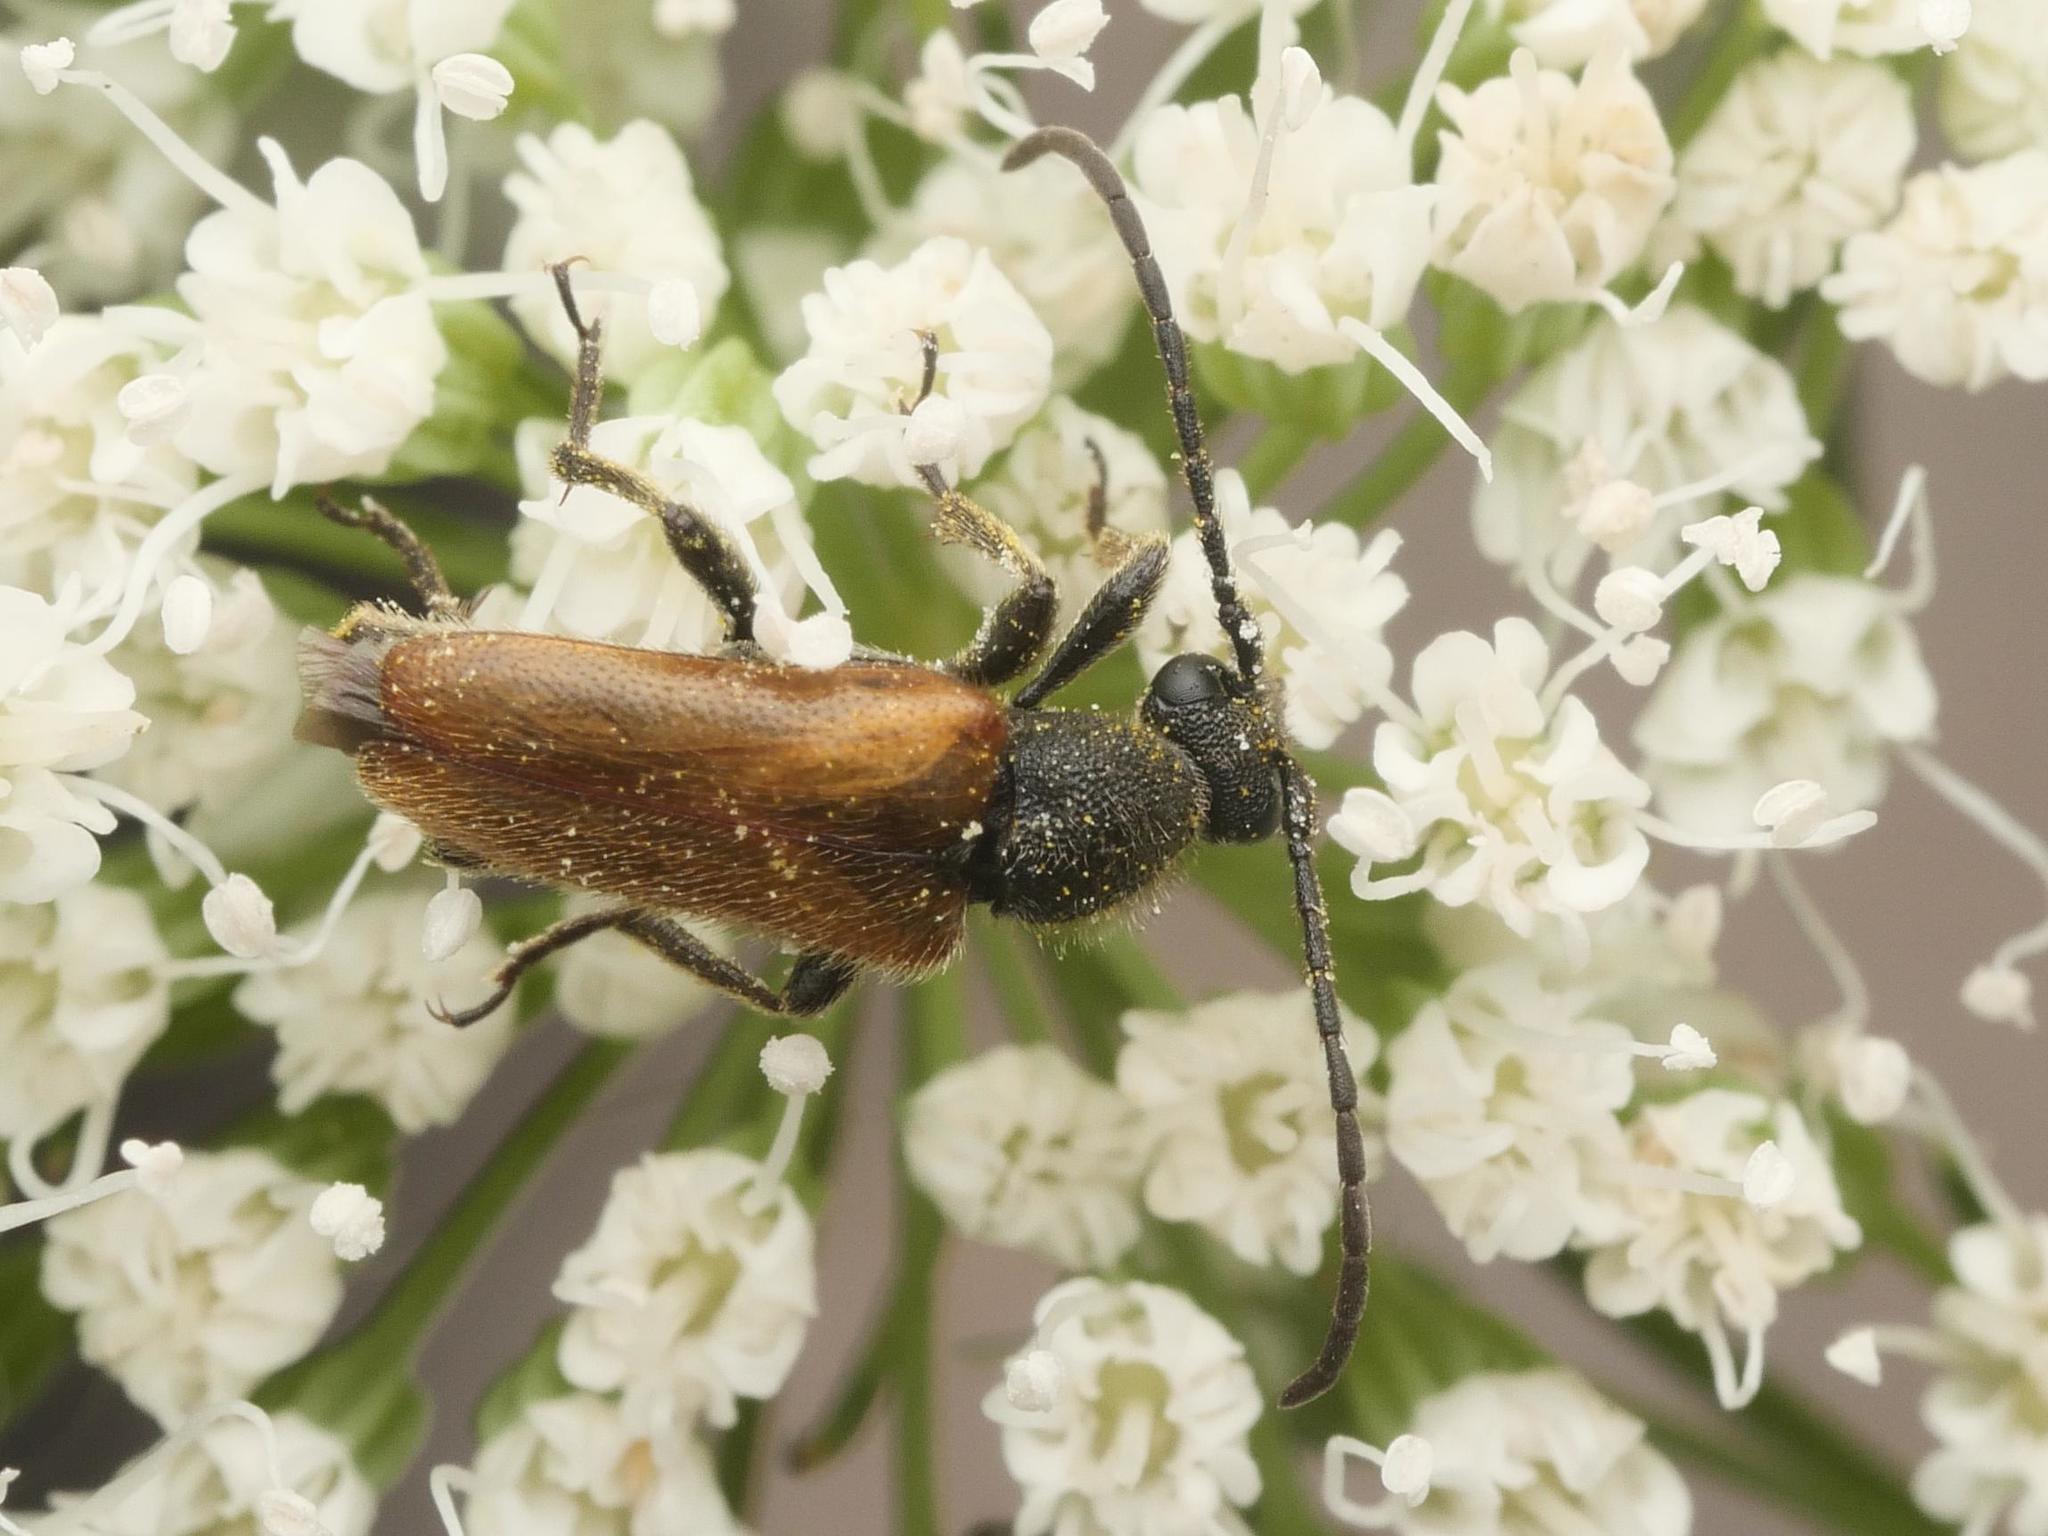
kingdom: Animalia
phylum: Arthropoda
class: Insecta
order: Coleoptera
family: Cerambycidae
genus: Pseudovadonia
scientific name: Pseudovadonia livida
